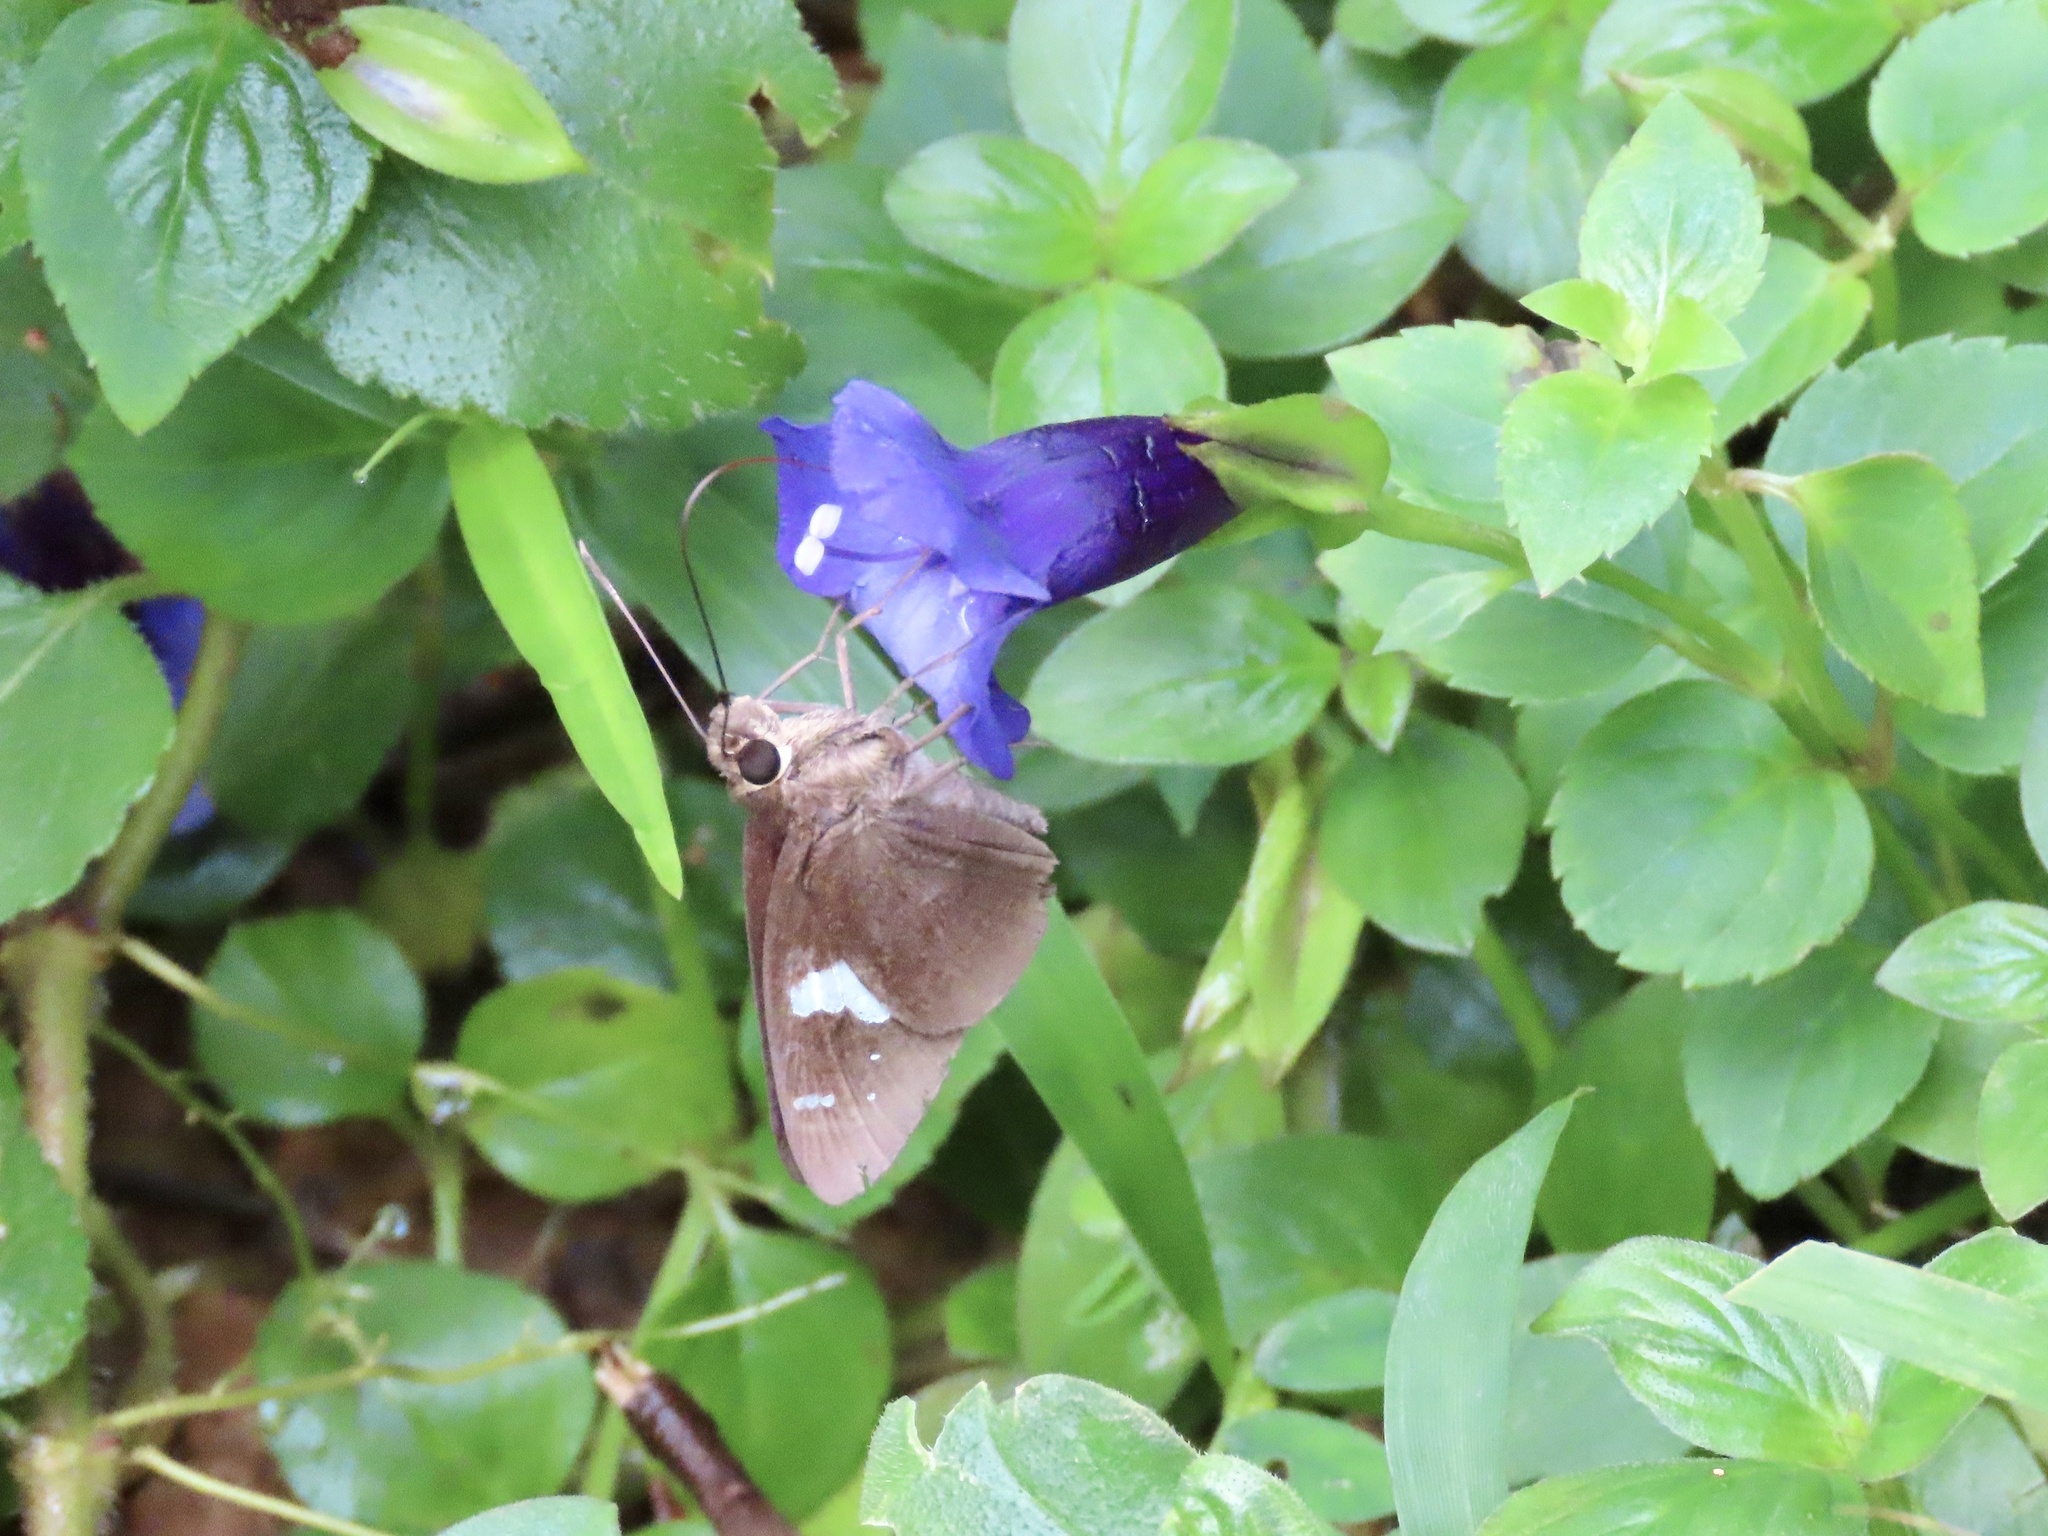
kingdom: Animalia
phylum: Arthropoda
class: Insecta
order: Lepidoptera
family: Hesperiidae
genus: Notocrypta
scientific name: Notocrypta curvifascia
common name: Restricted demon
